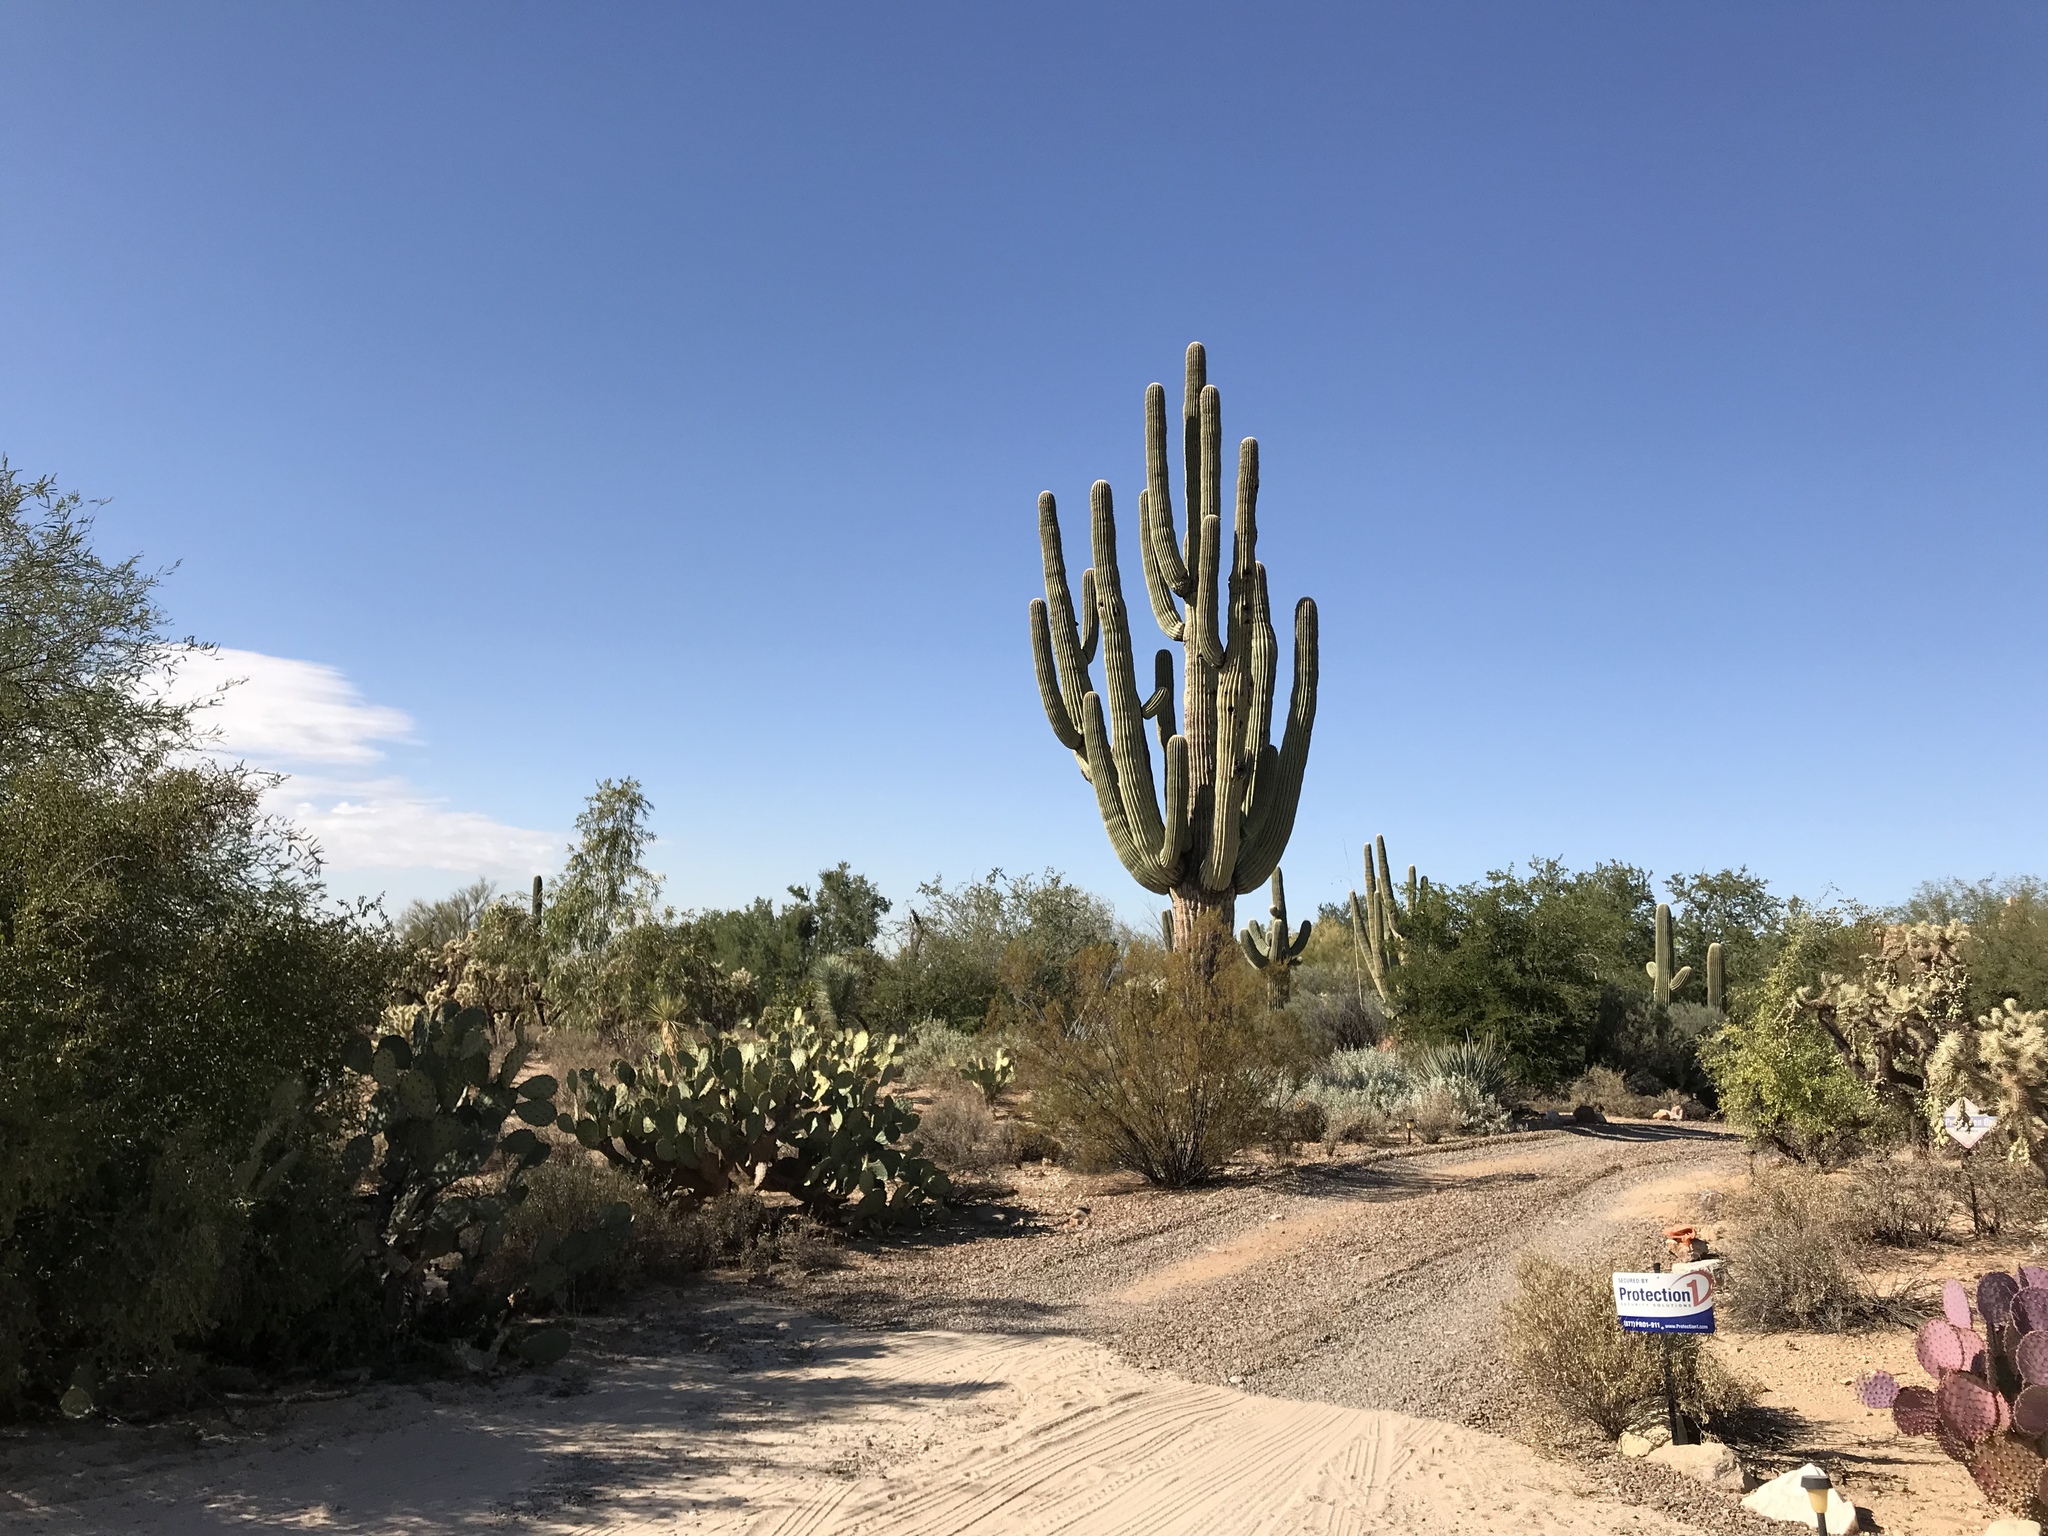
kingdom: Plantae
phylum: Tracheophyta
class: Magnoliopsida
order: Caryophyllales
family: Cactaceae
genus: Carnegiea
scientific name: Carnegiea gigantea
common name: Saguaro
